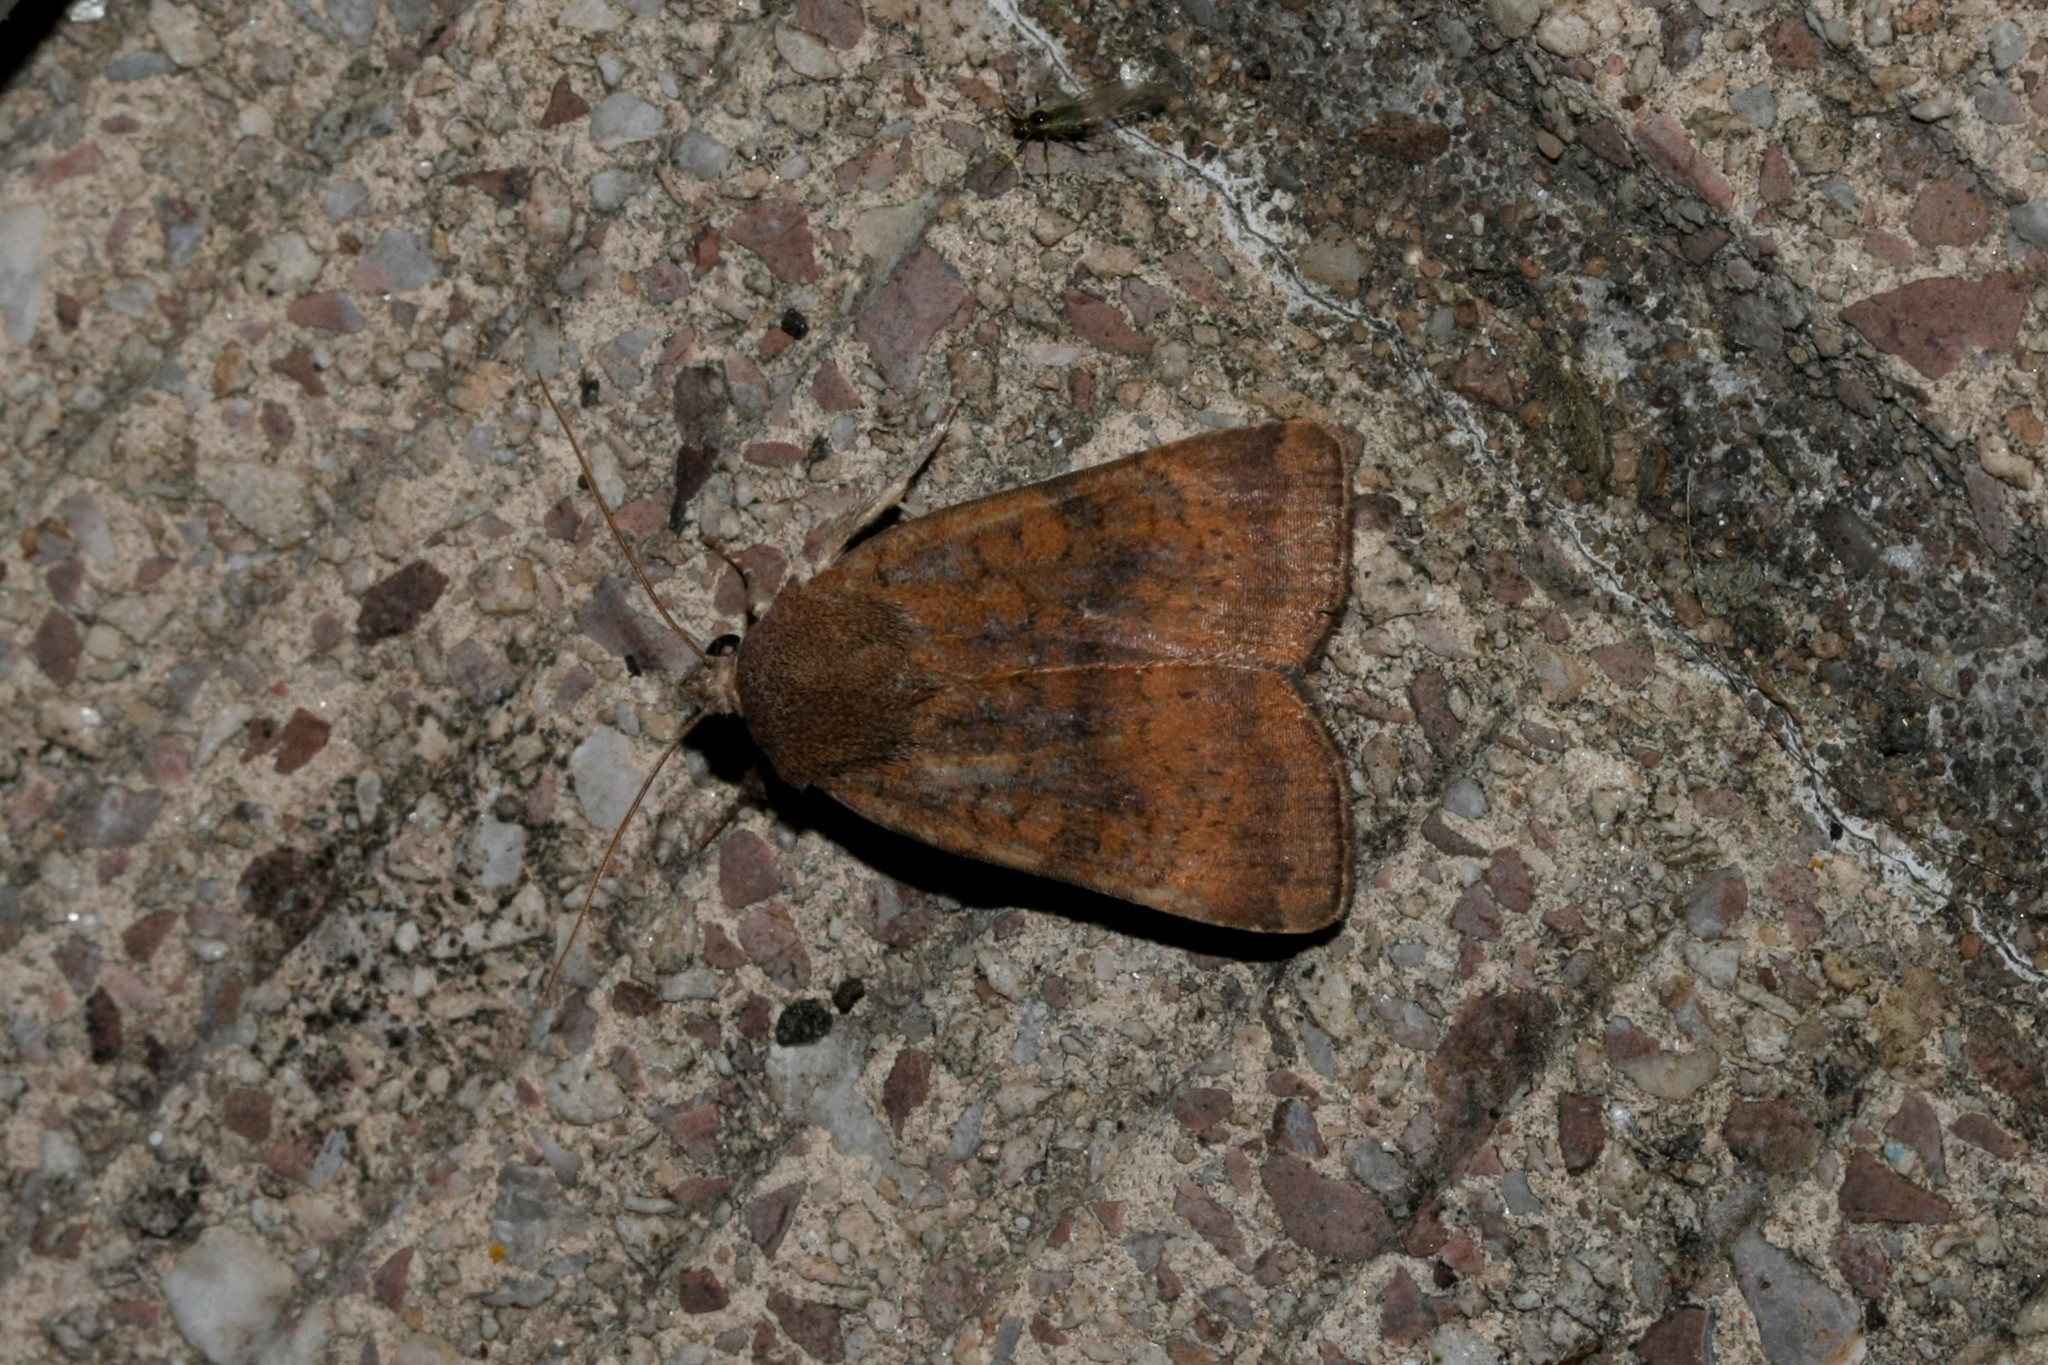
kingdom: Animalia
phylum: Arthropoda
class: Insecta
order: Lepidoptera
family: Noctuidae
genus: Noctua
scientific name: Noctua interjecta
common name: Least yellow underwing
